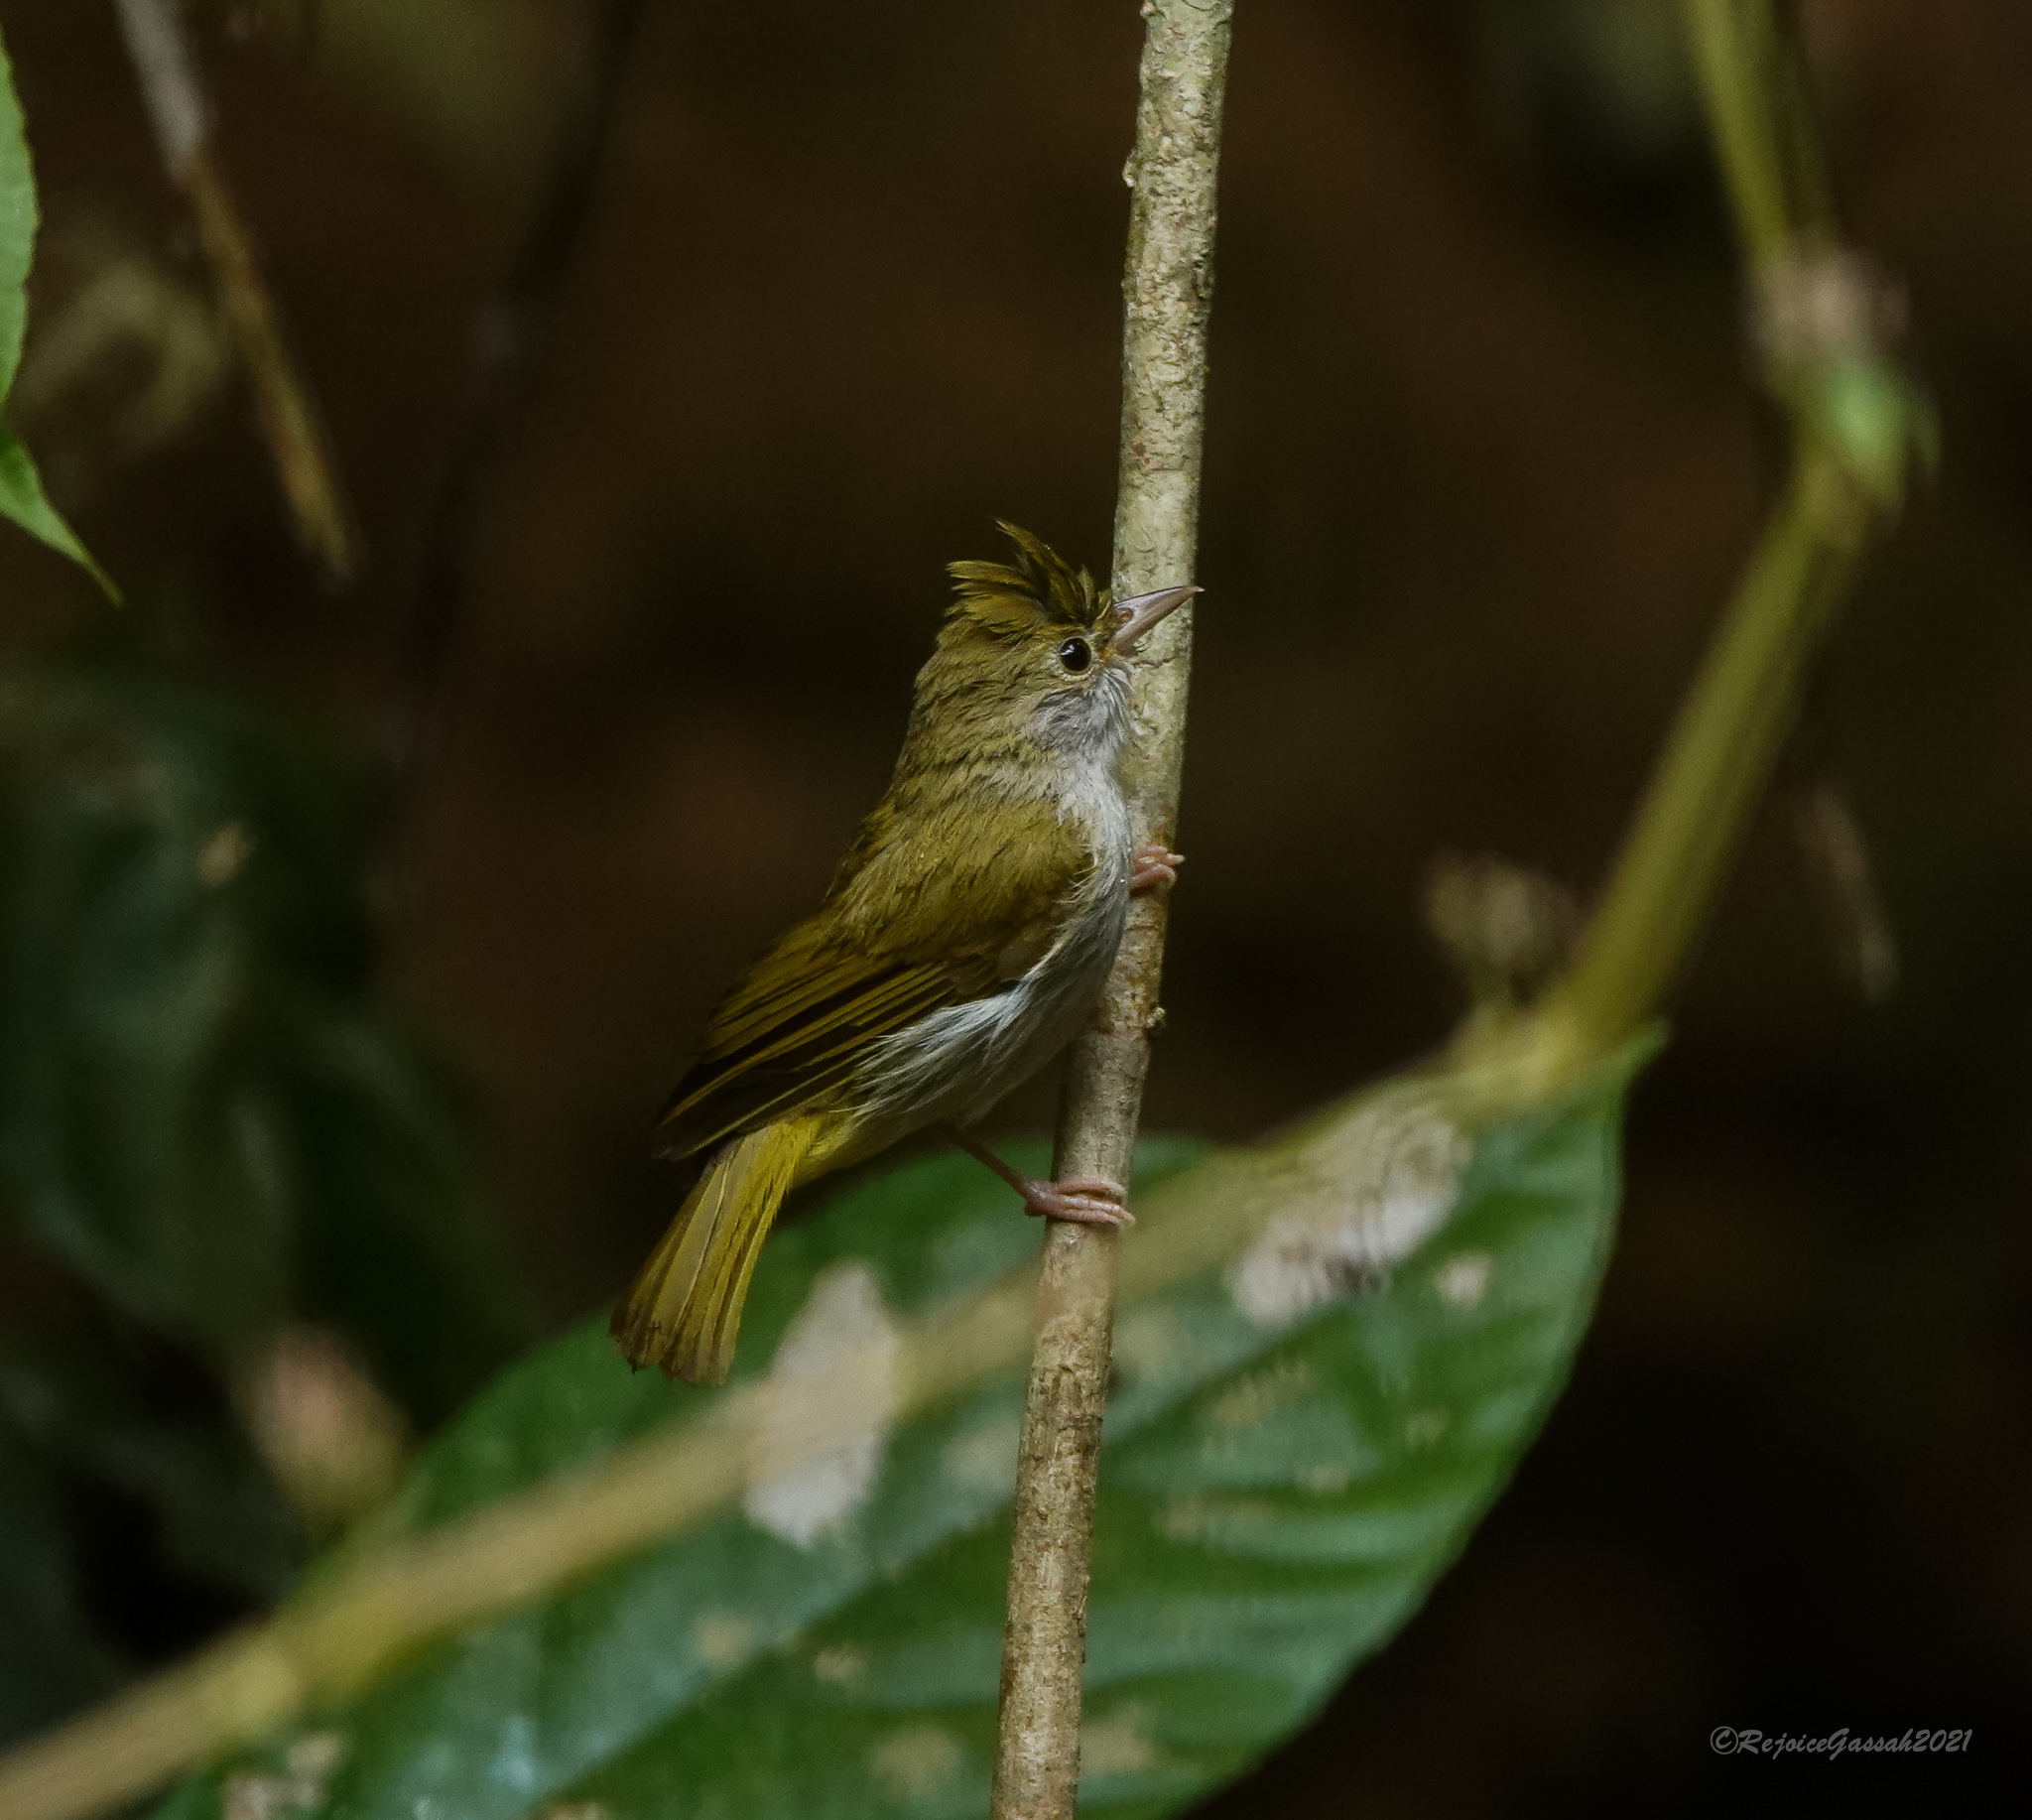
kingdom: Animalia
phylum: Chordata
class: Aves
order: Passeriformes
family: Vireonidae
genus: Erpornis
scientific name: Erpornis zantholeuca
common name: White-bellied erpornis
